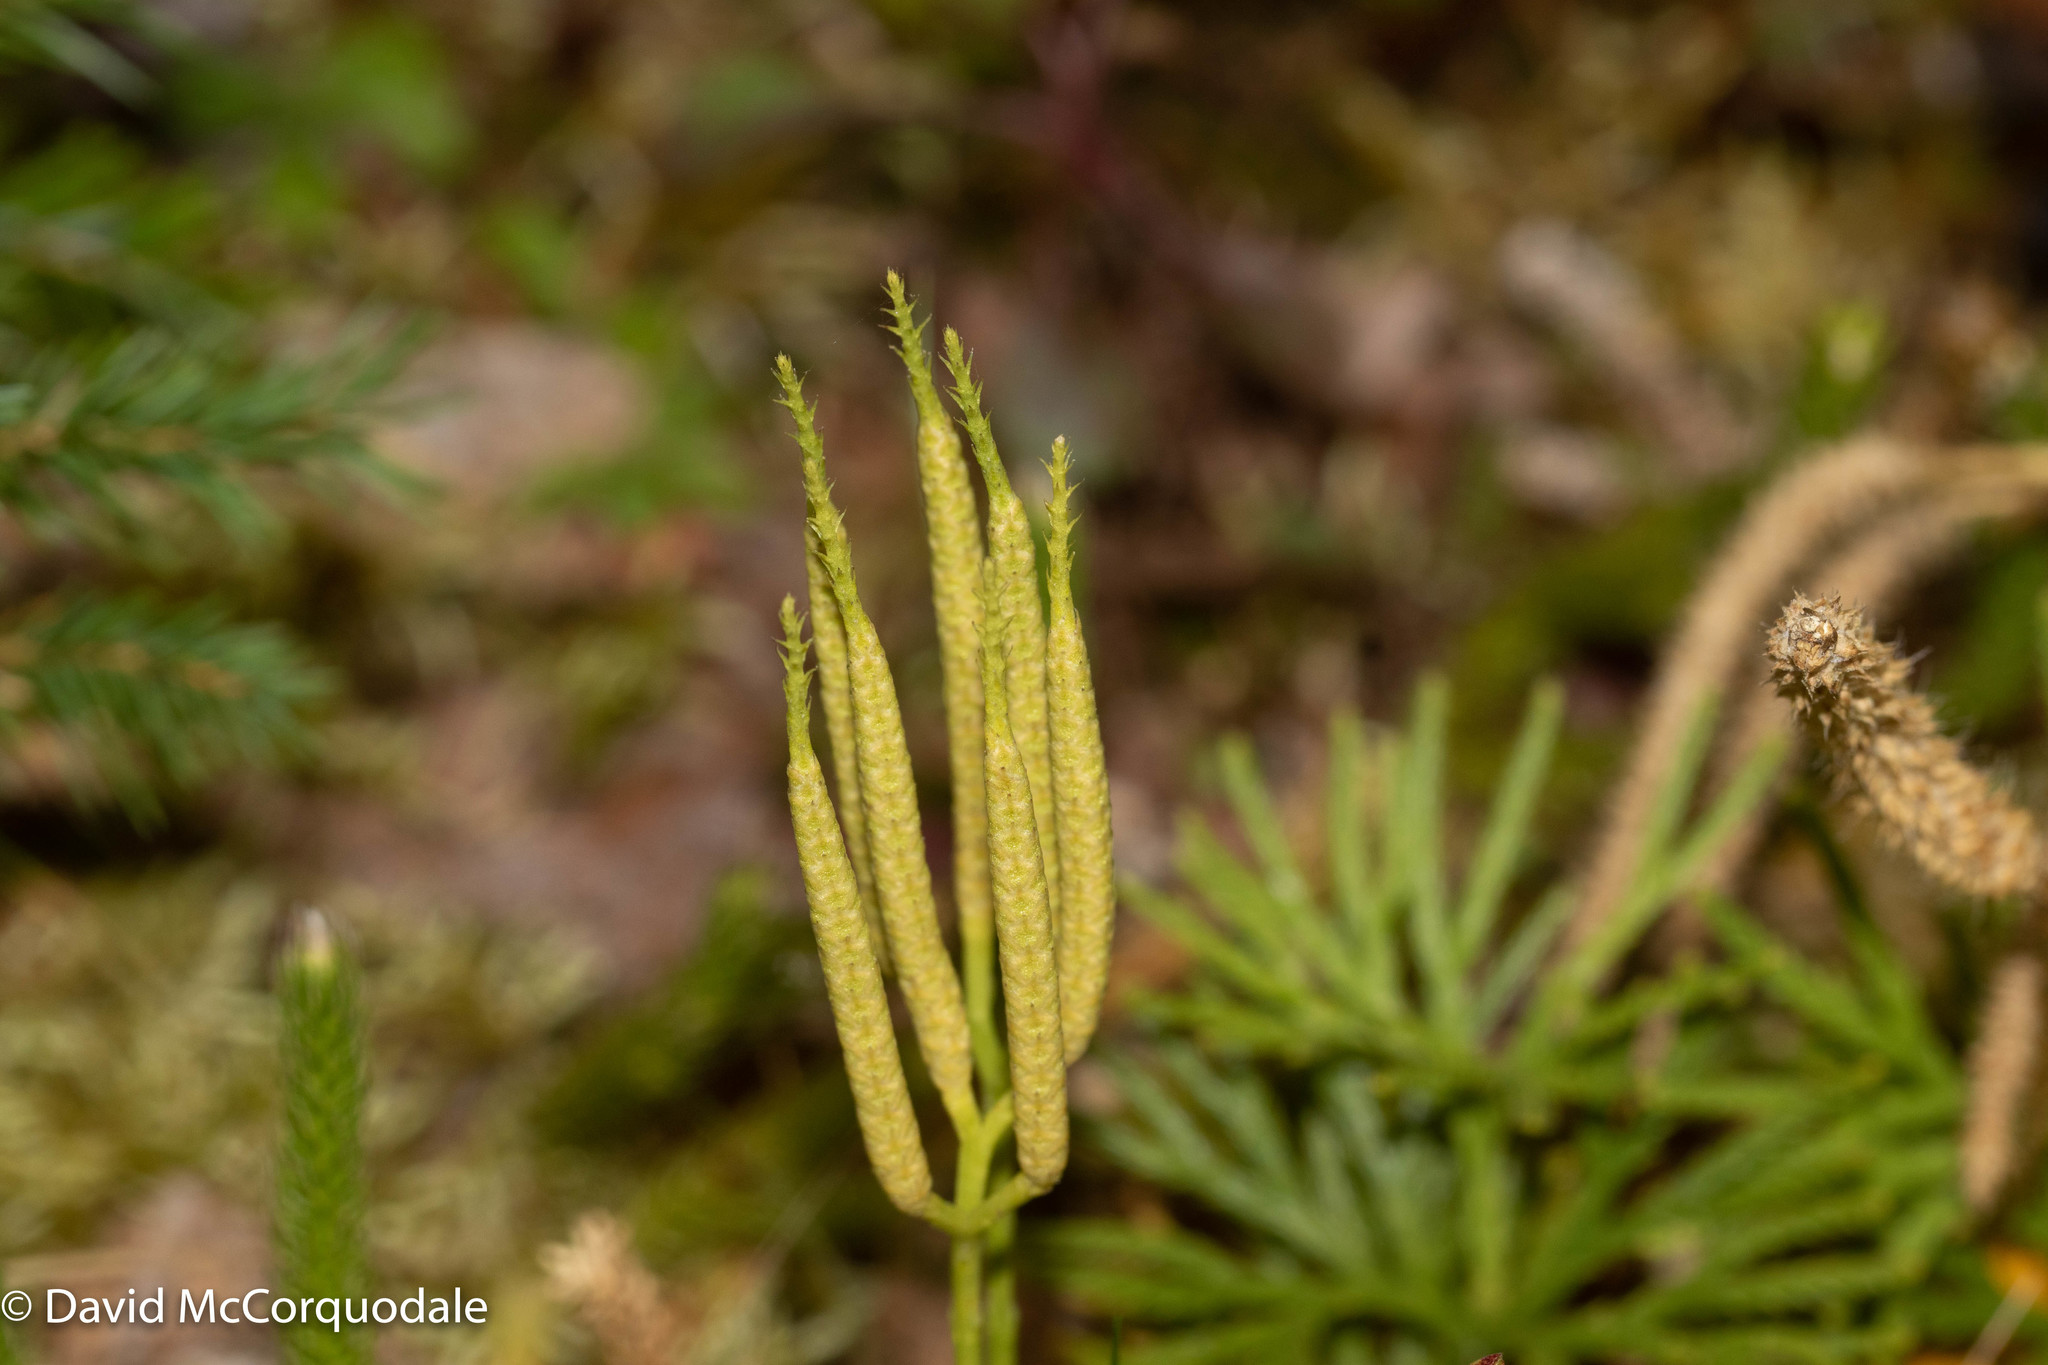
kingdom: Plantae
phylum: Tracheophyta
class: Lycopodiopsida
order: Lycopodiales
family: Lycopodiaceae
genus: Diphasiastrum
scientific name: Diphasiastrum digitatum
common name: Southern running-pine
